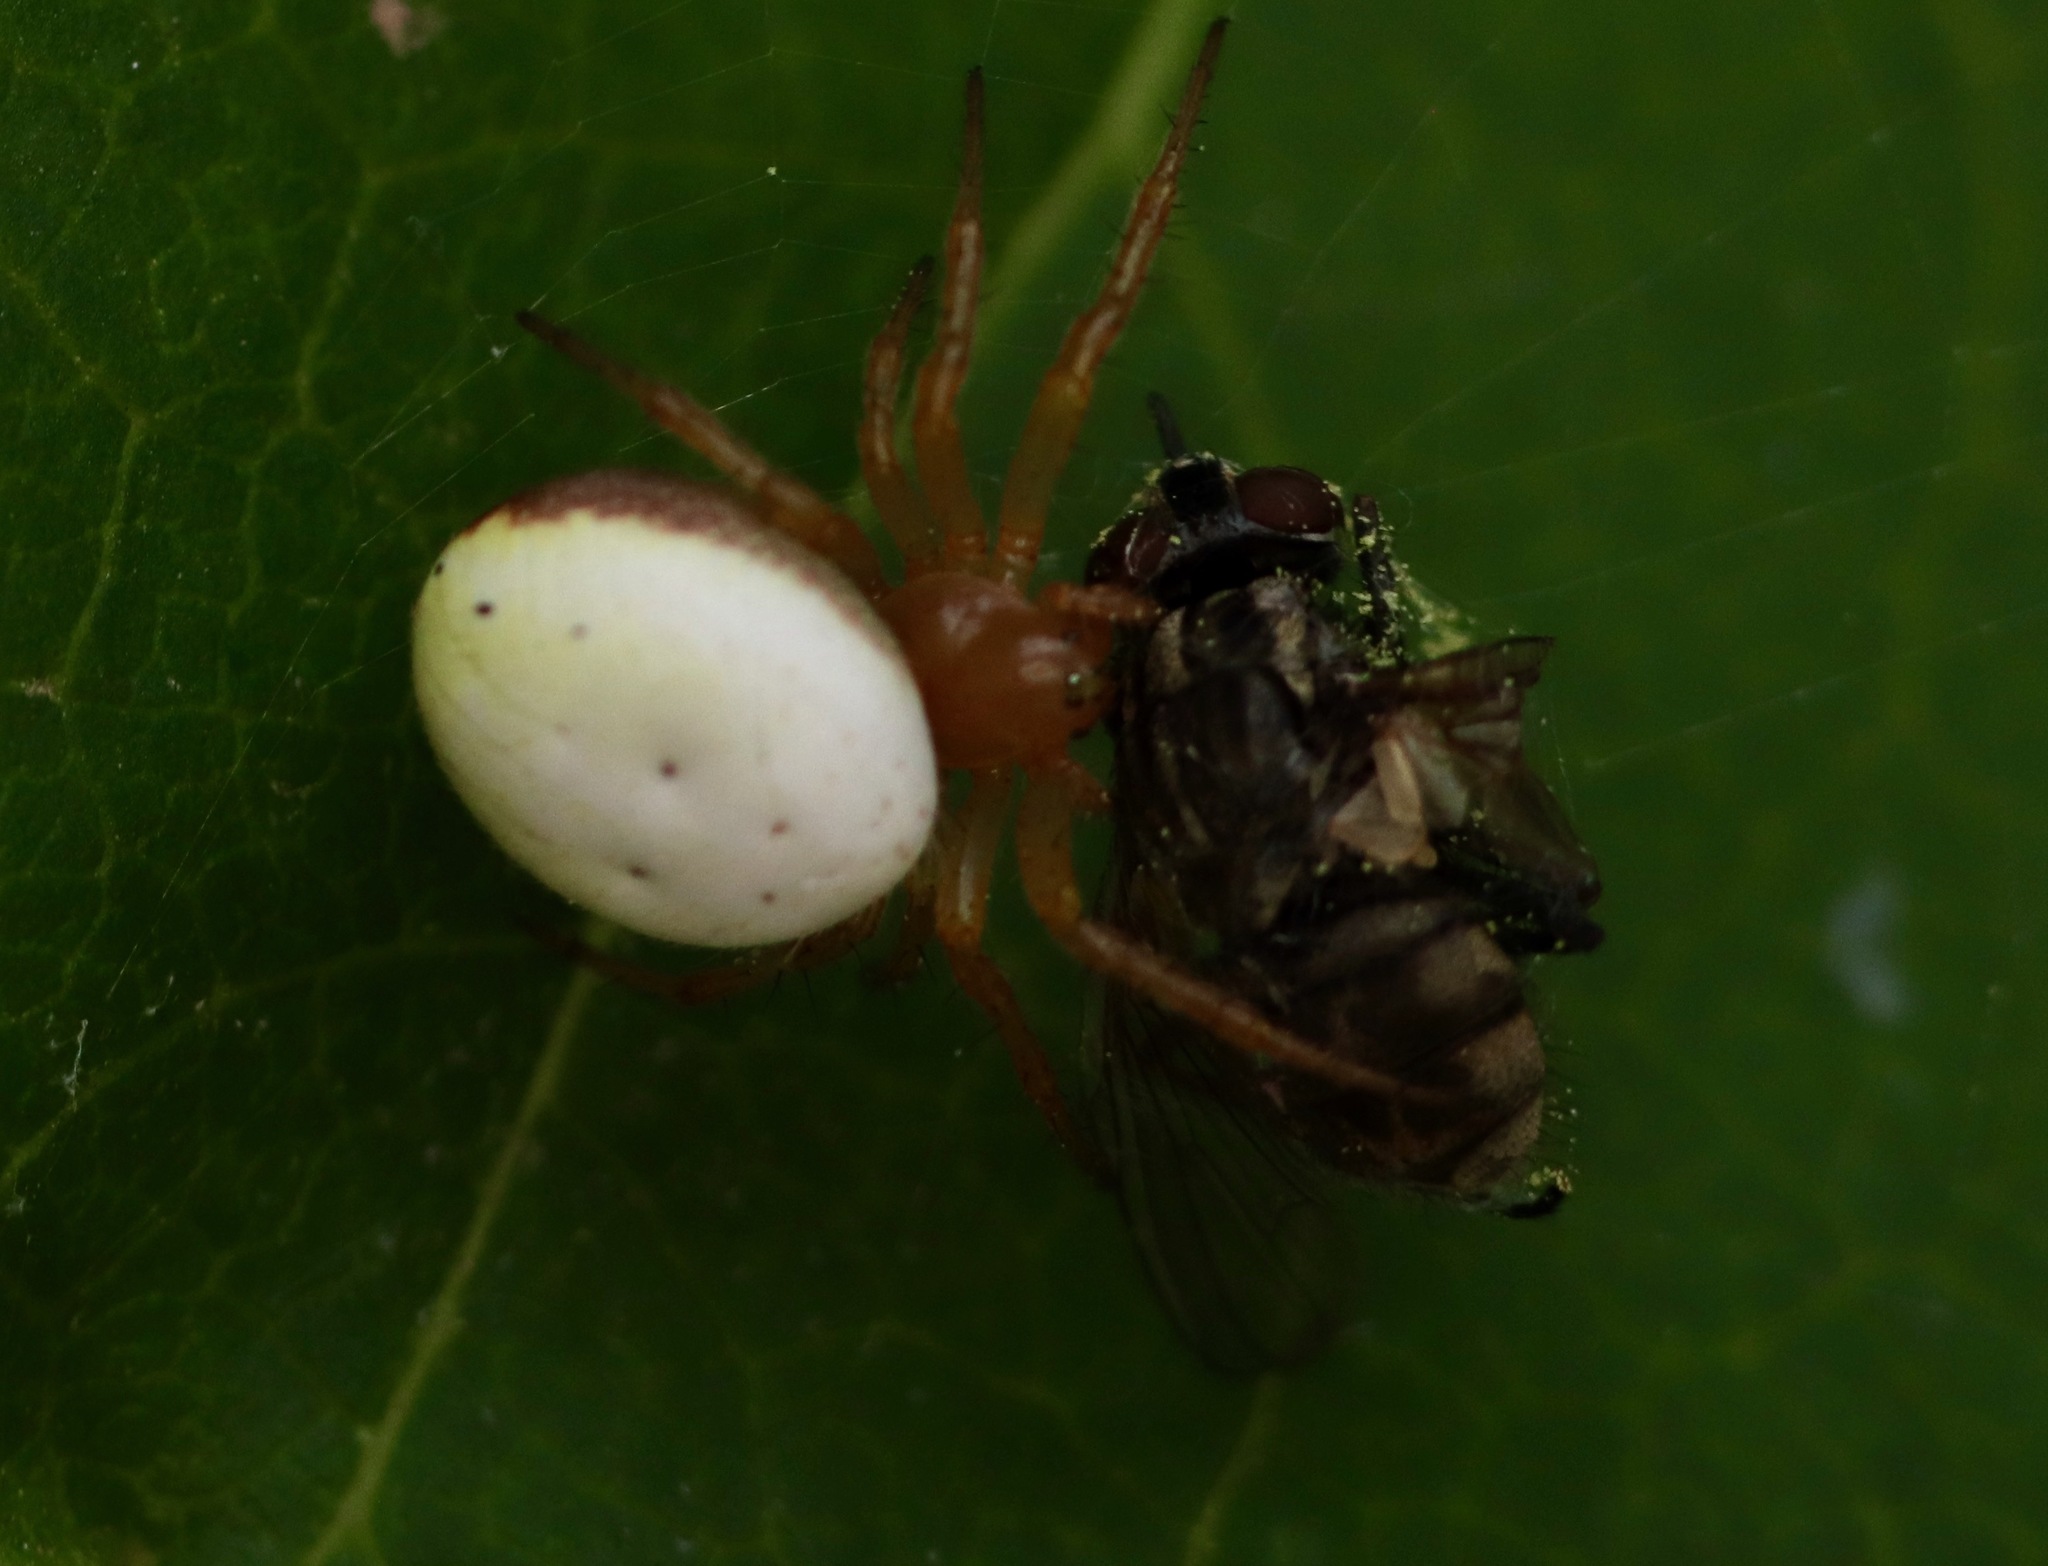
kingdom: Animalia
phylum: Arthropoda
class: Arachnida
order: Araneae
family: Araneidae
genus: Araniella
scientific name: Araniella displicata
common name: Sixspotted orb weaver
